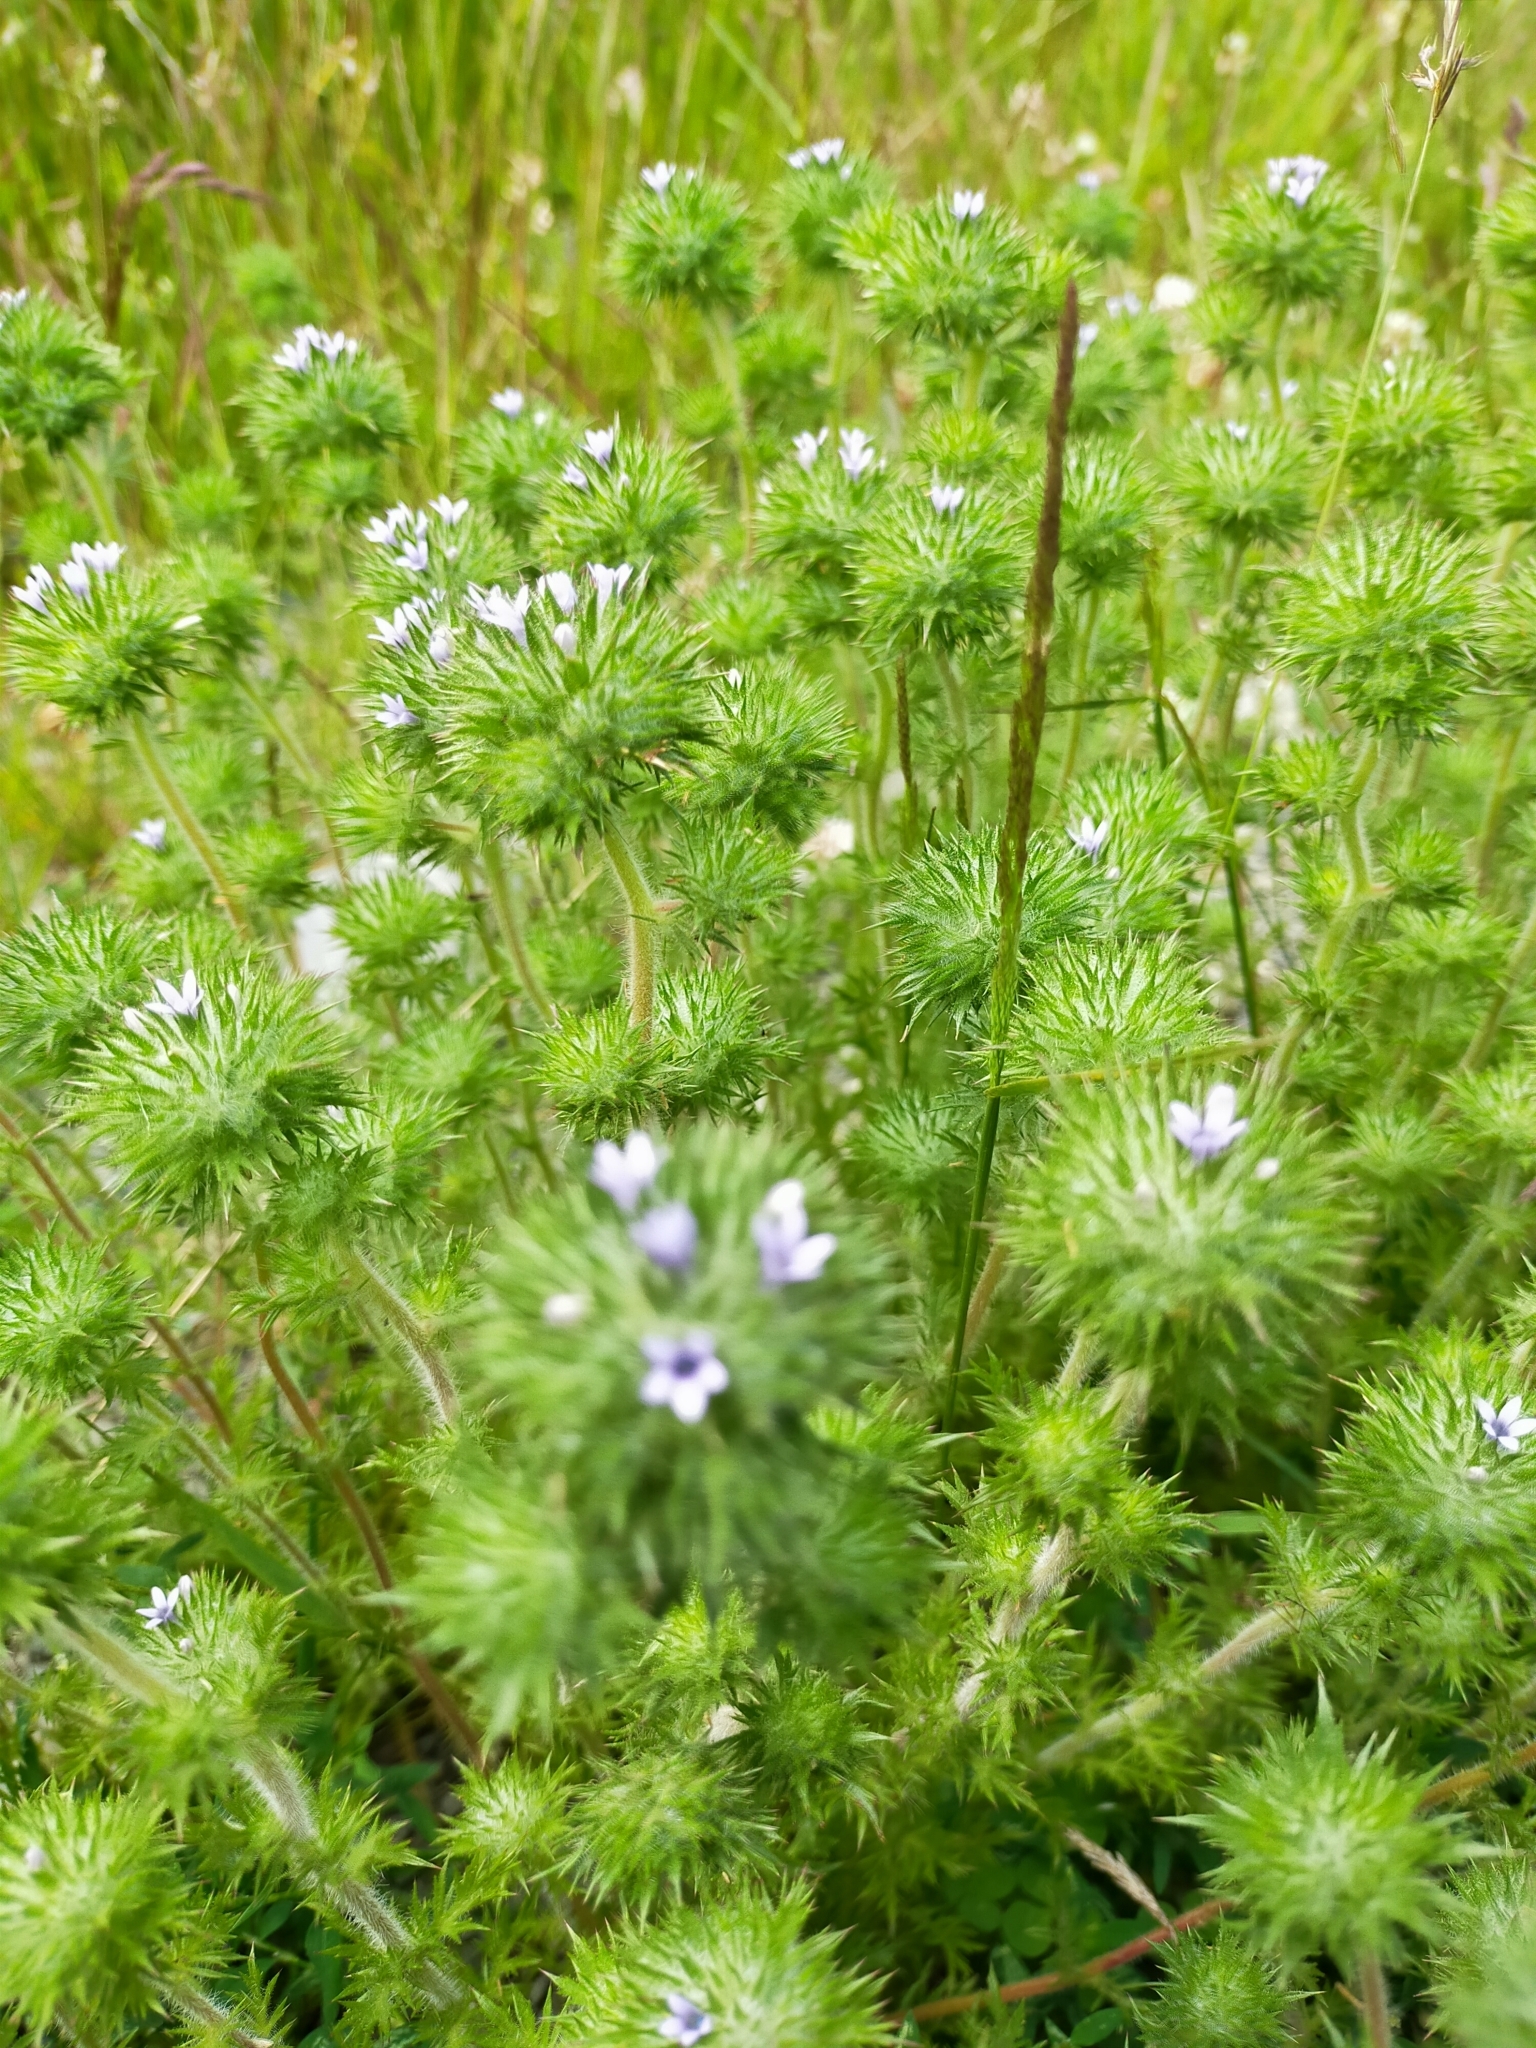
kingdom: Plantae
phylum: Tracheophyta
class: Magnoliopsida
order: Ericales
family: Polemoniaceae
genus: Navarretia
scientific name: Navarretia squarrosa
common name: Skunkweed
